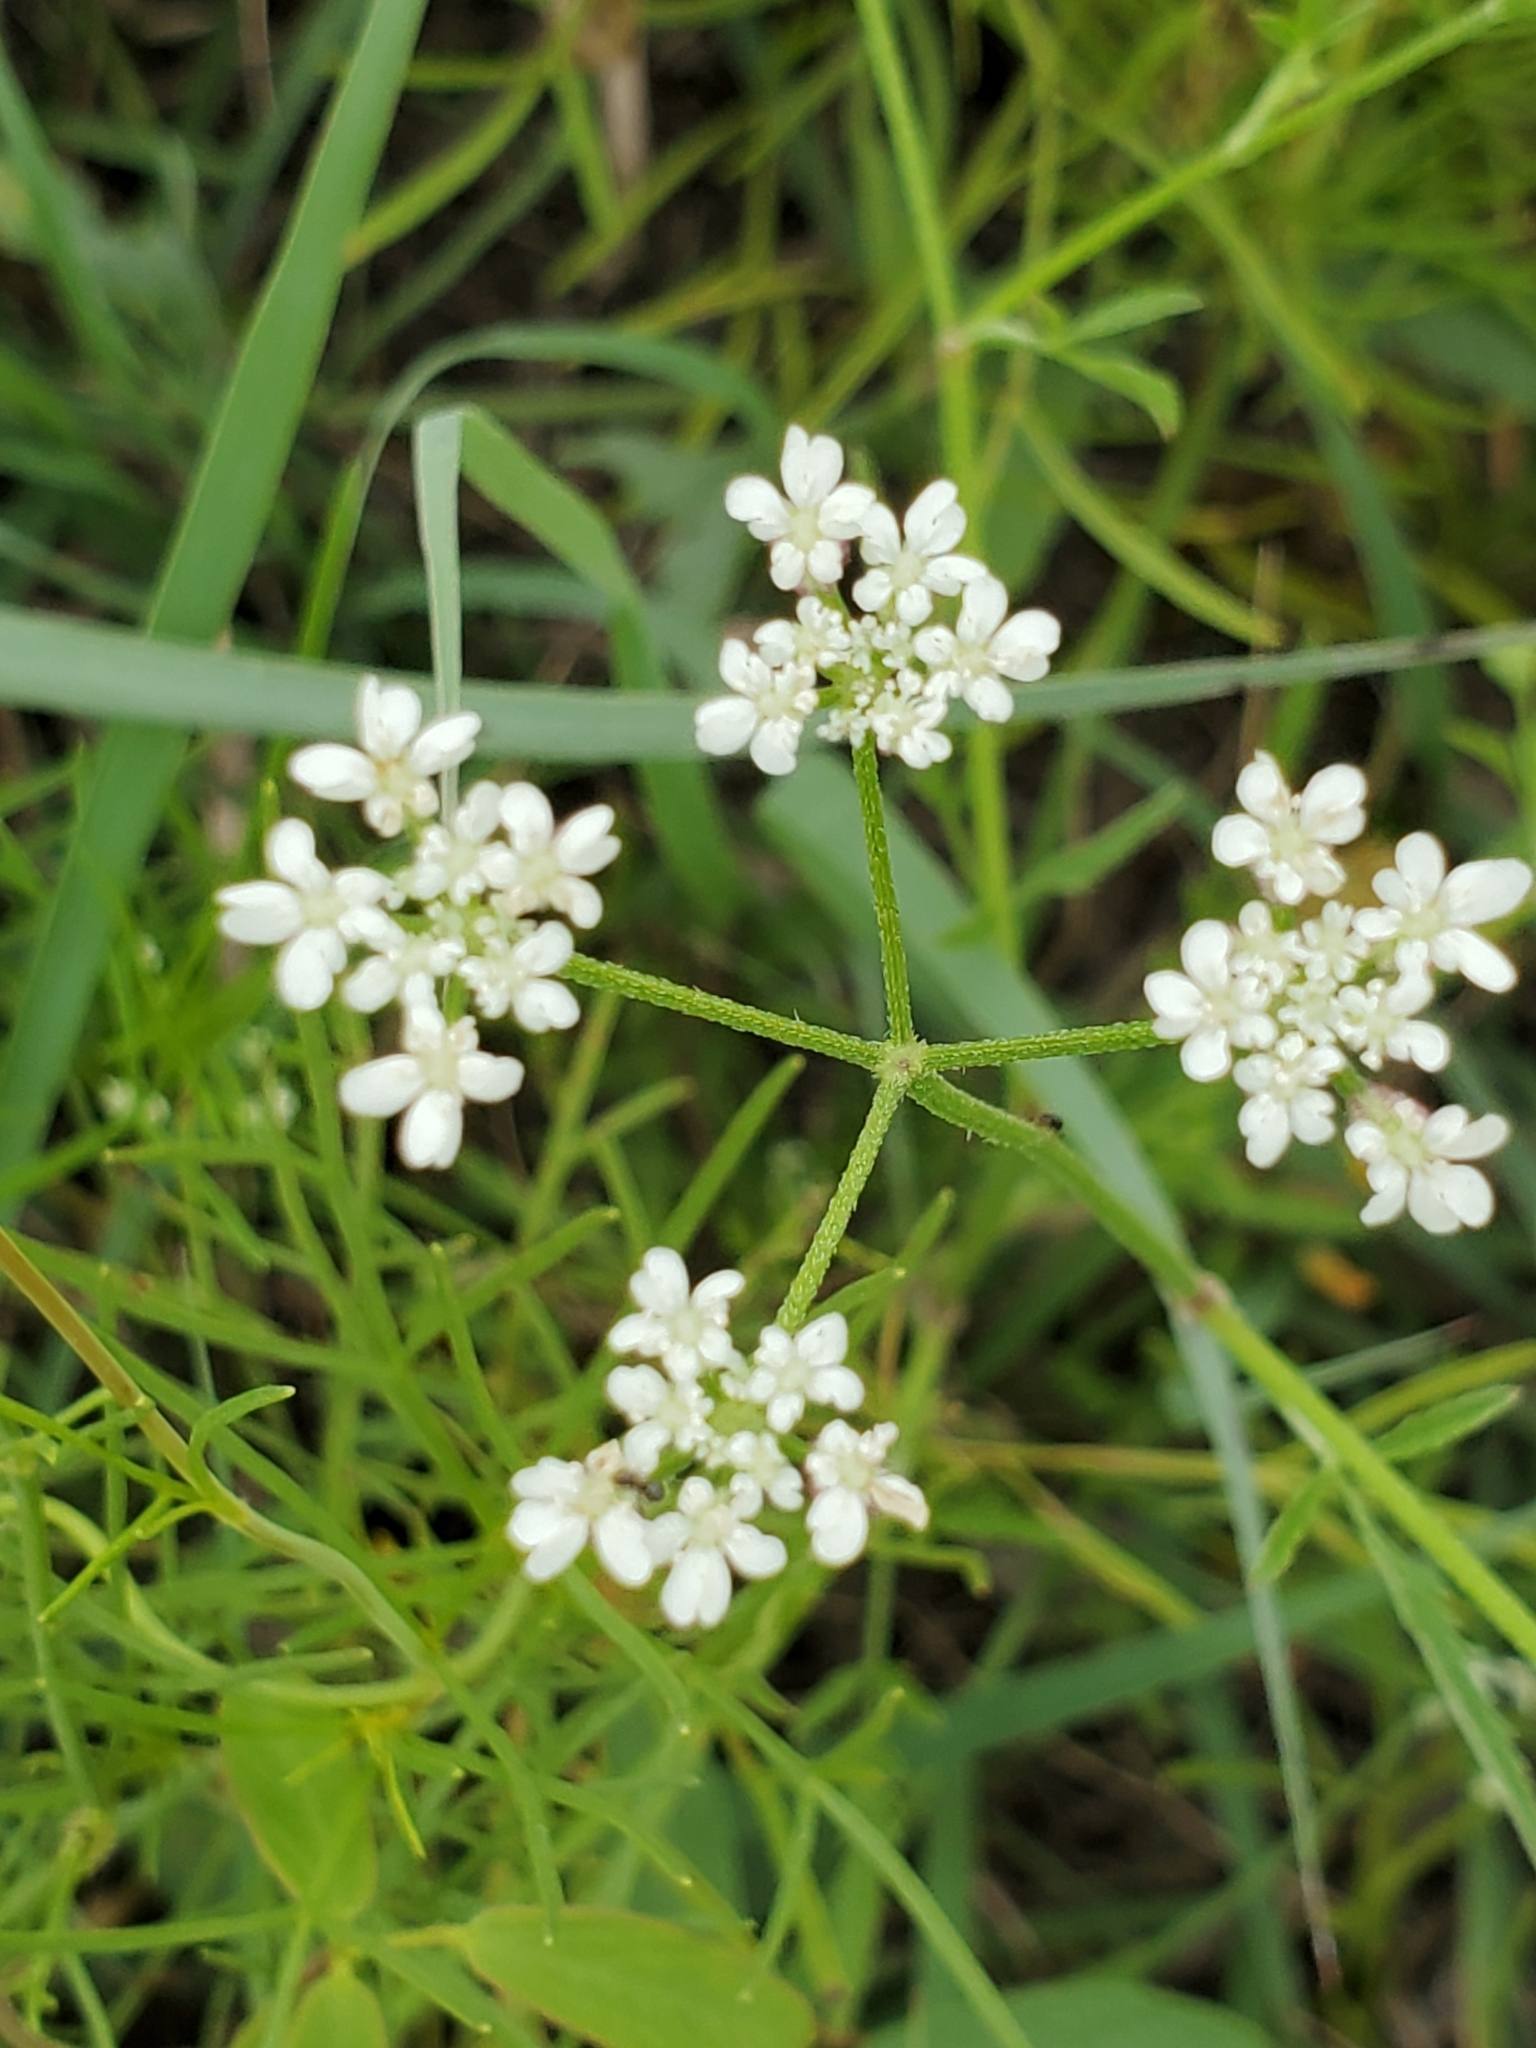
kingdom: Plantae
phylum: Tracheophyta
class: Magnoliopsida
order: Apiales
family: Apiaceae
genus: Torilis
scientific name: Torilis arvensis
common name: Spreading hedge-parsley
